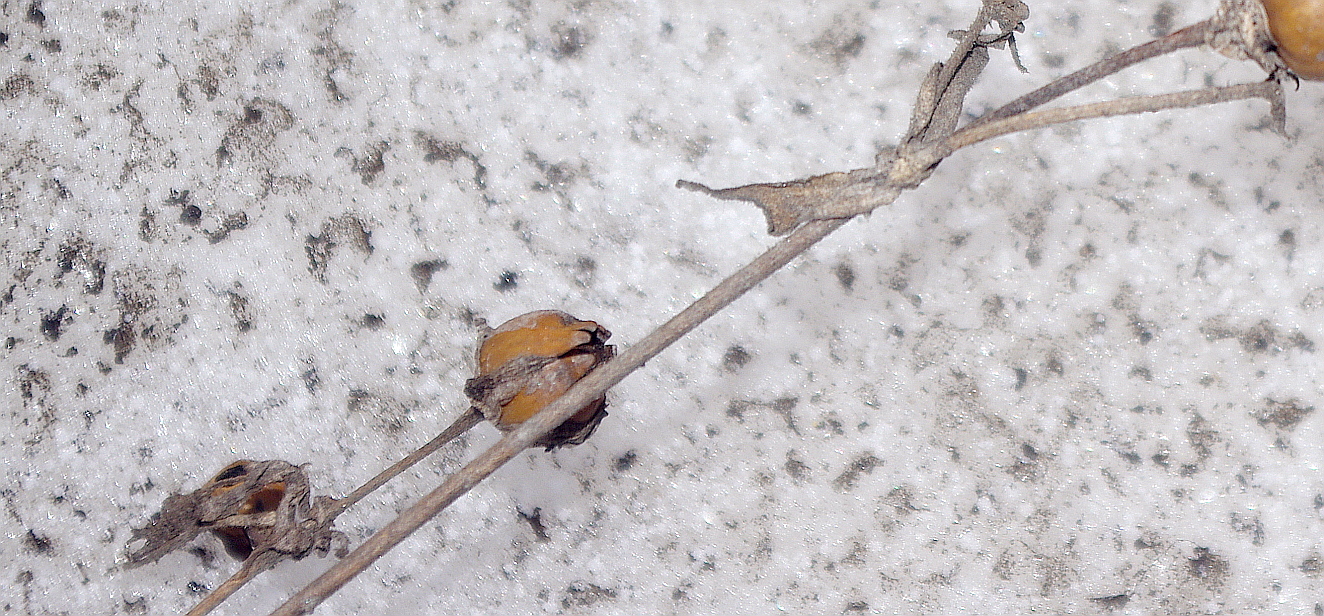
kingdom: Plantae
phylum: Tracheophyta
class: Magnoliopsida
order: Caryophyllales
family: Caryophyllaceae
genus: Silene
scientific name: Silene latifolia
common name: White campion
